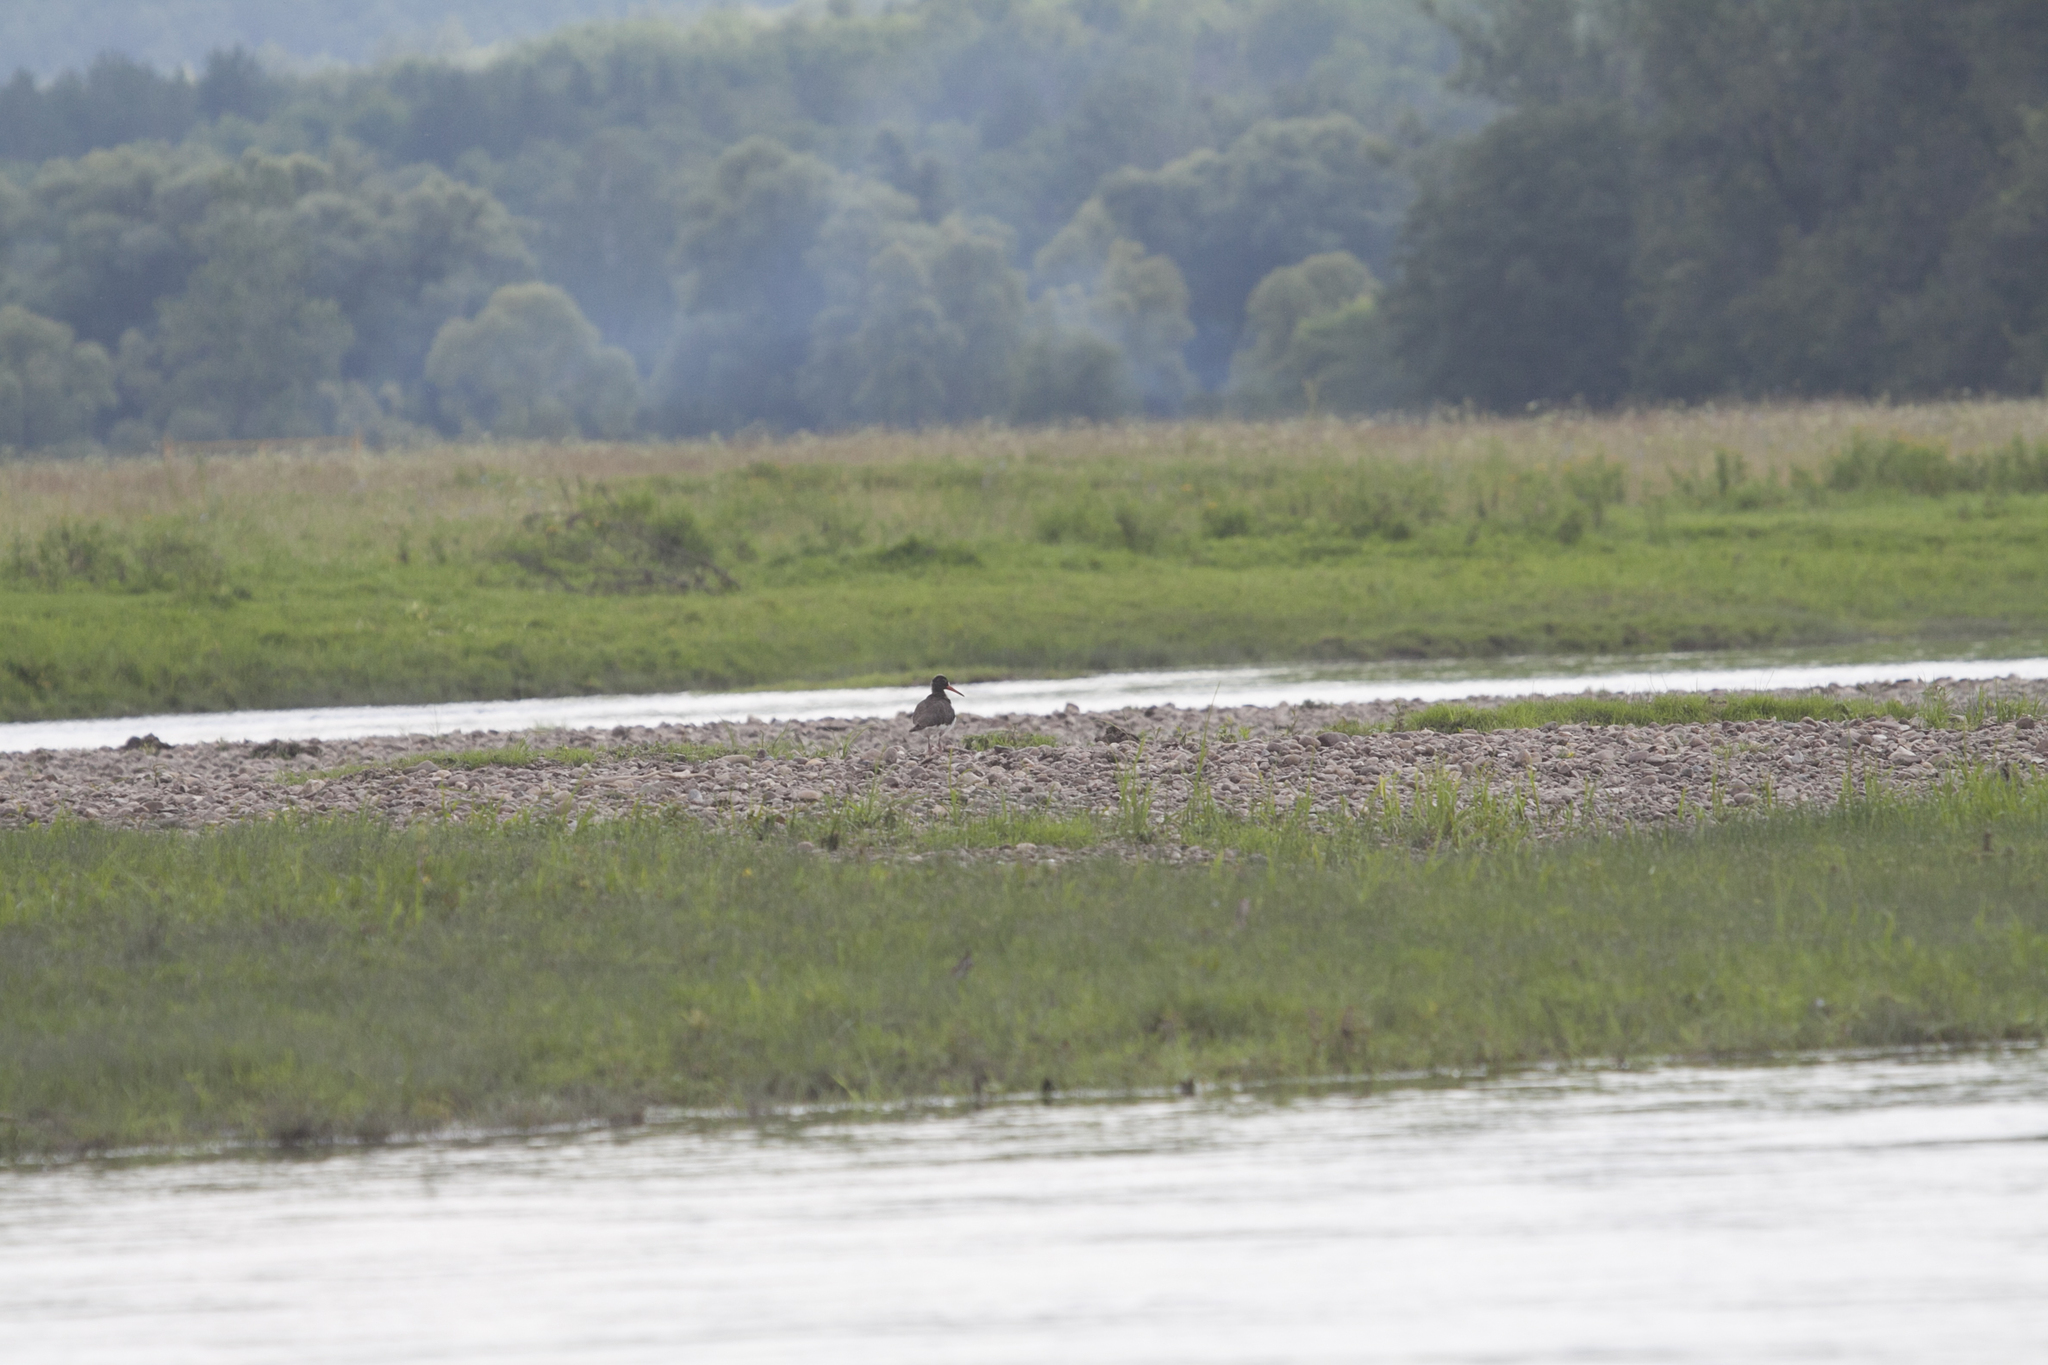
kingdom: Animalia
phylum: Chordata
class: Aves
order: Charadriiformes
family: Haematopodidae
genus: Haematopus
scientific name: Haematopus ostralegus
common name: Eurasian oystercatcher
